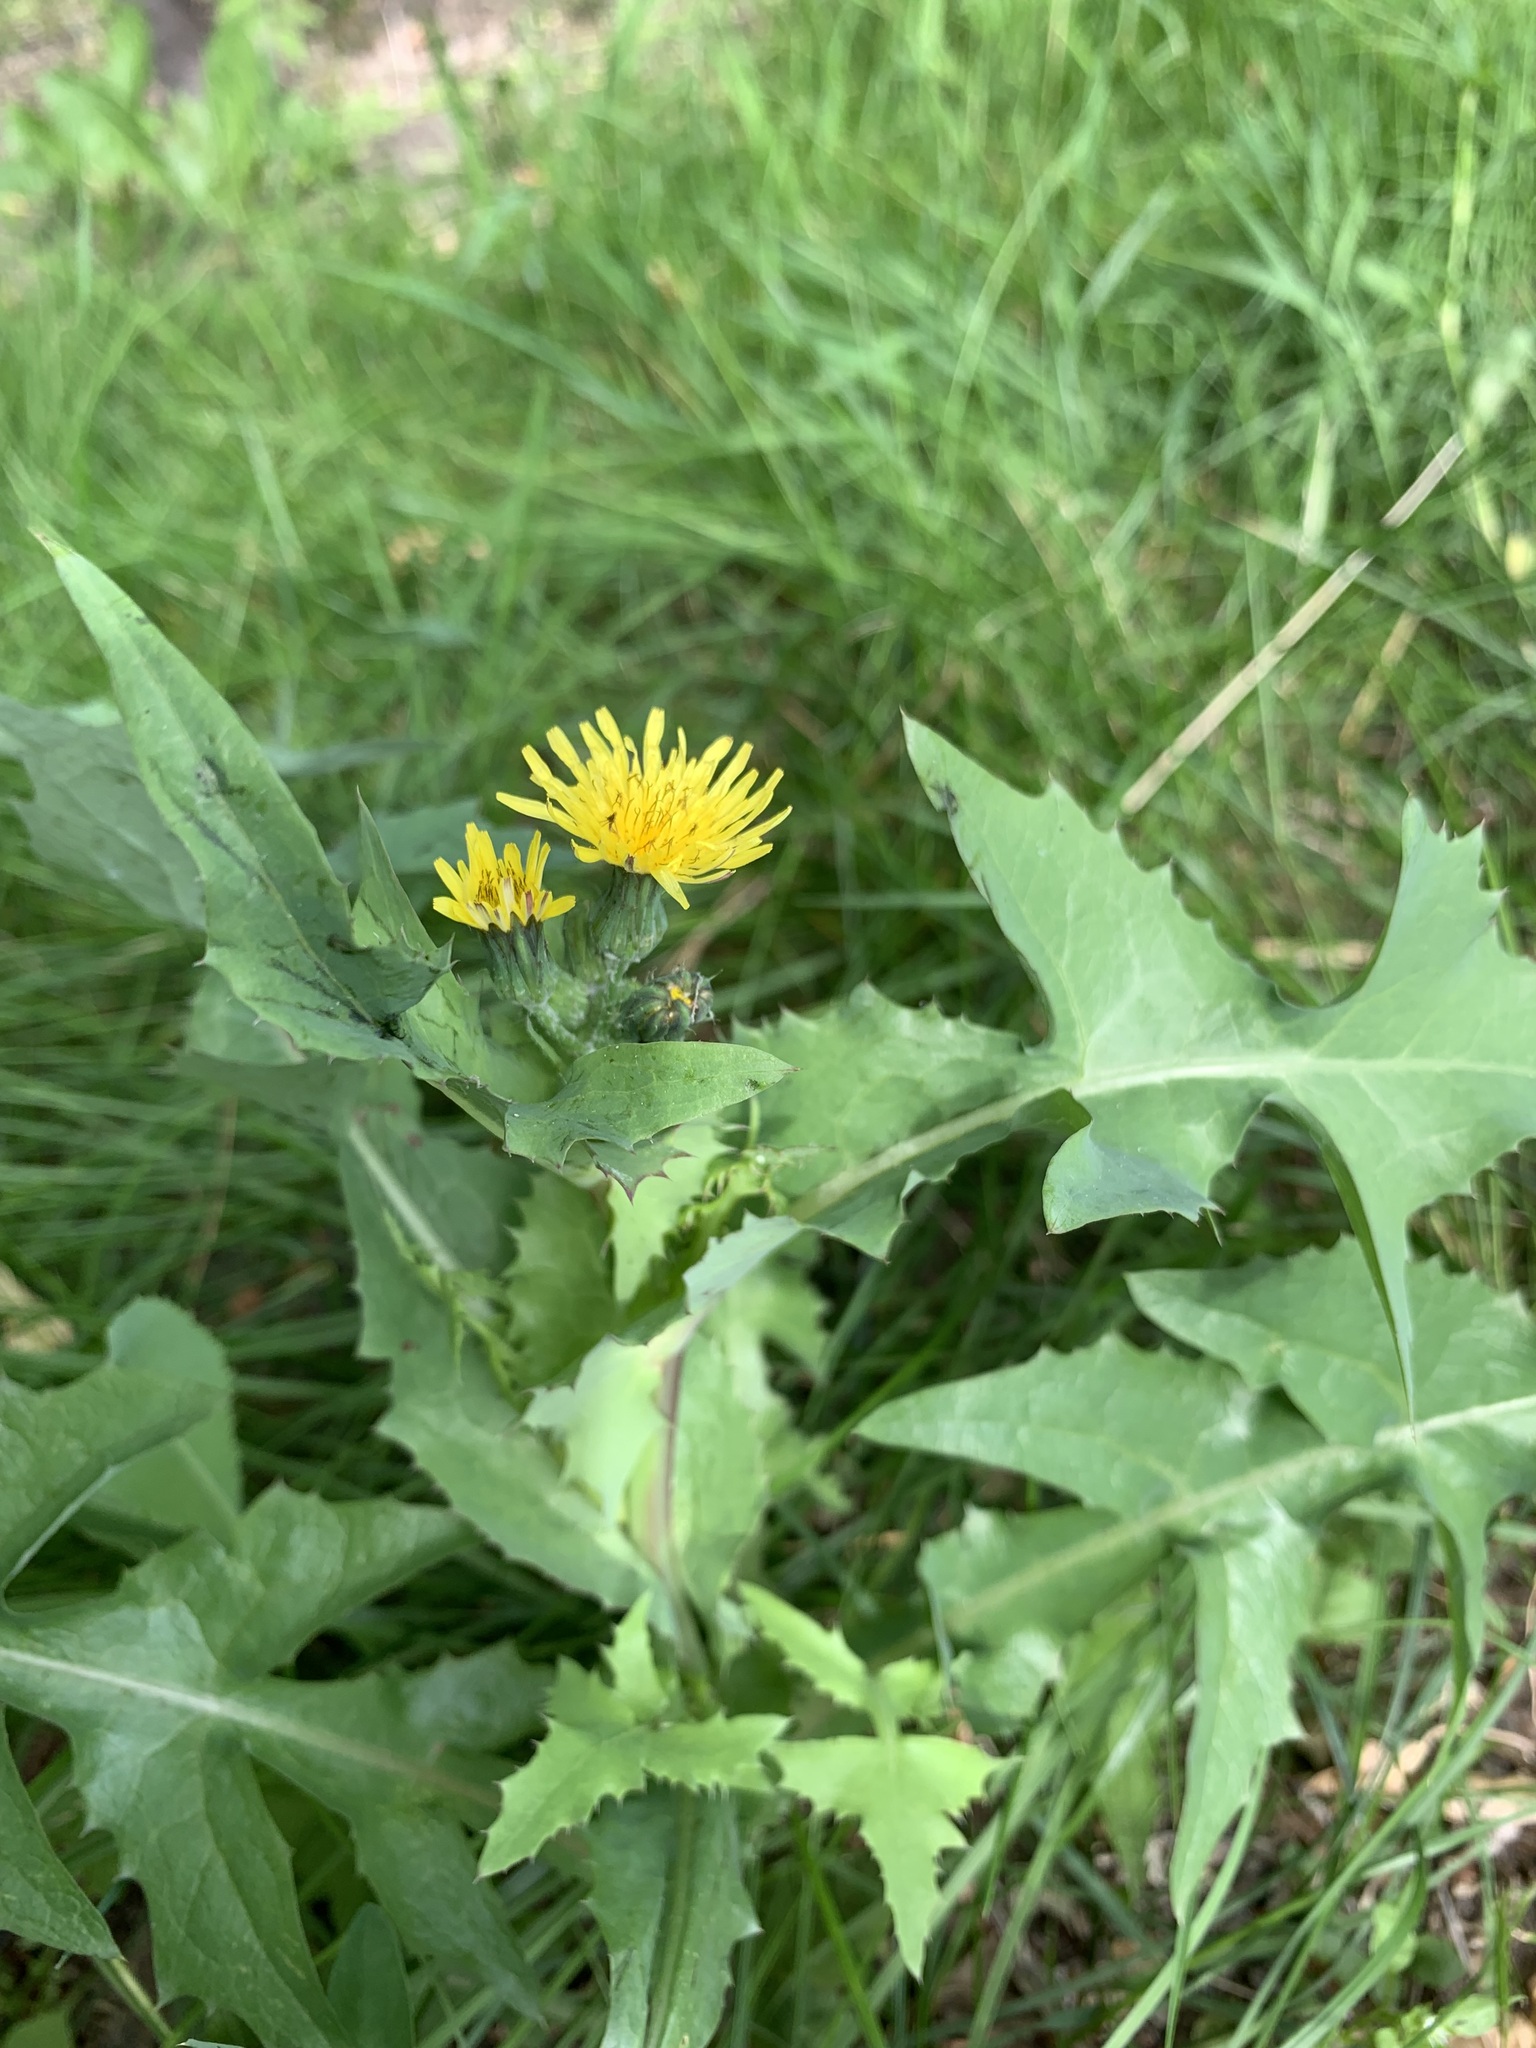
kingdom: Plantae
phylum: Tracheophyta
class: Magnoliopsida
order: Asterales
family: Asteraceae
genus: Sonchus
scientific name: Sonchus oleraceus
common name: Common sowthistle
